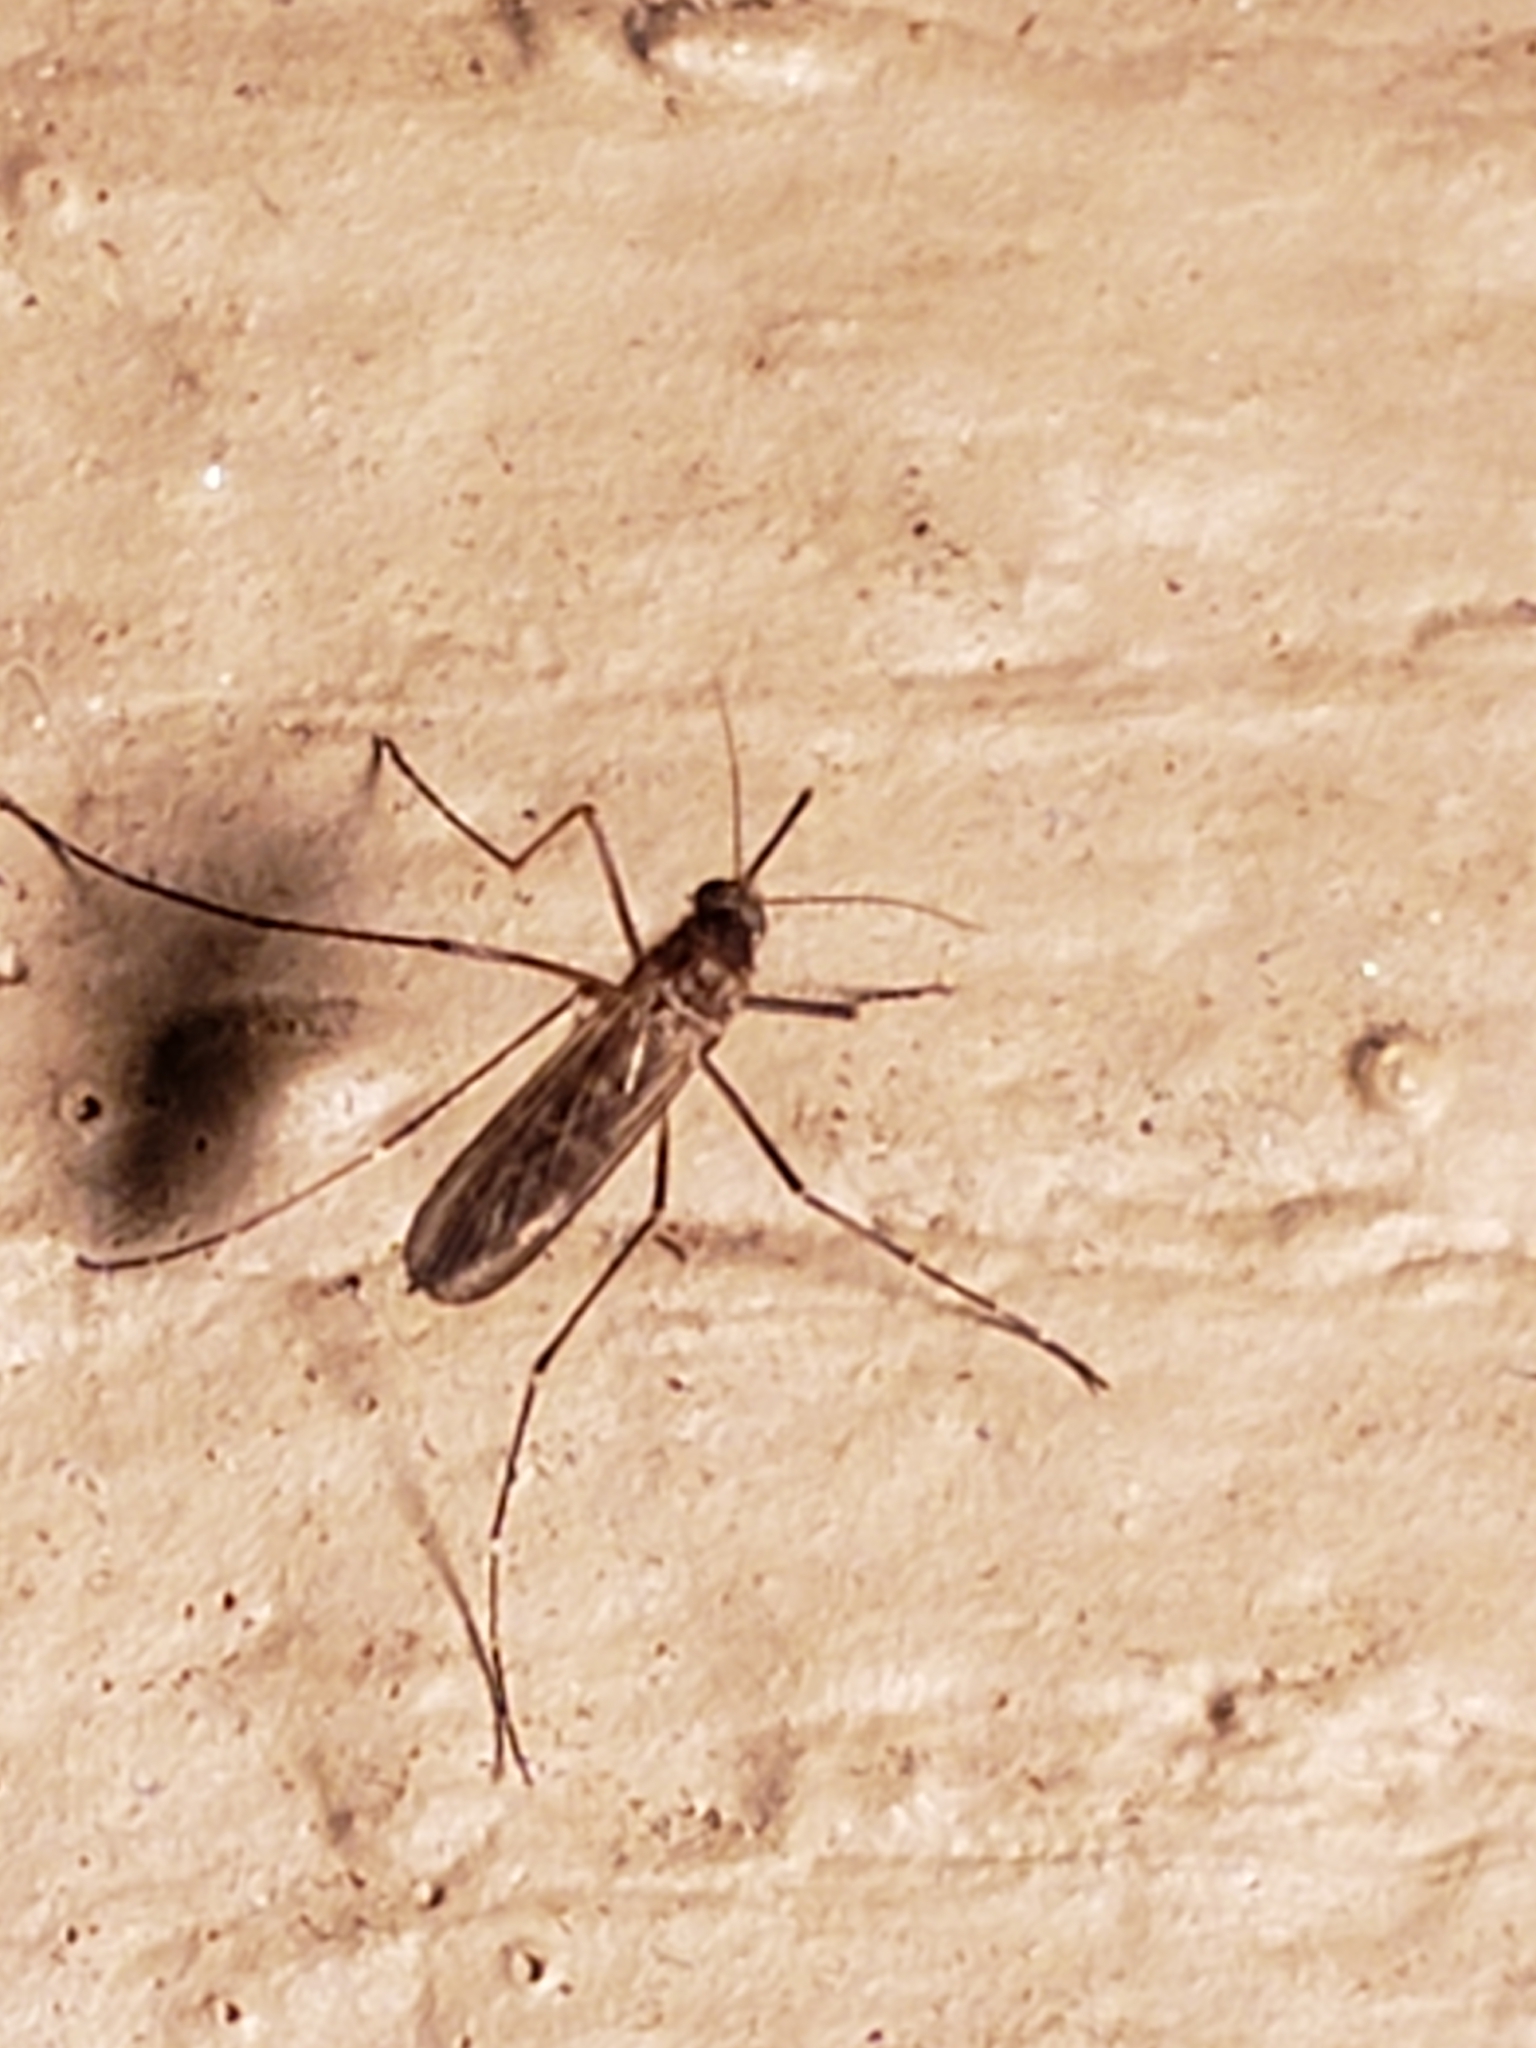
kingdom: Animalia
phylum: Arthropoda
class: Insecta
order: Diptera
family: Culicidae
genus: Aedes
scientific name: Aedes vexans
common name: Inland floodwater mosquito
